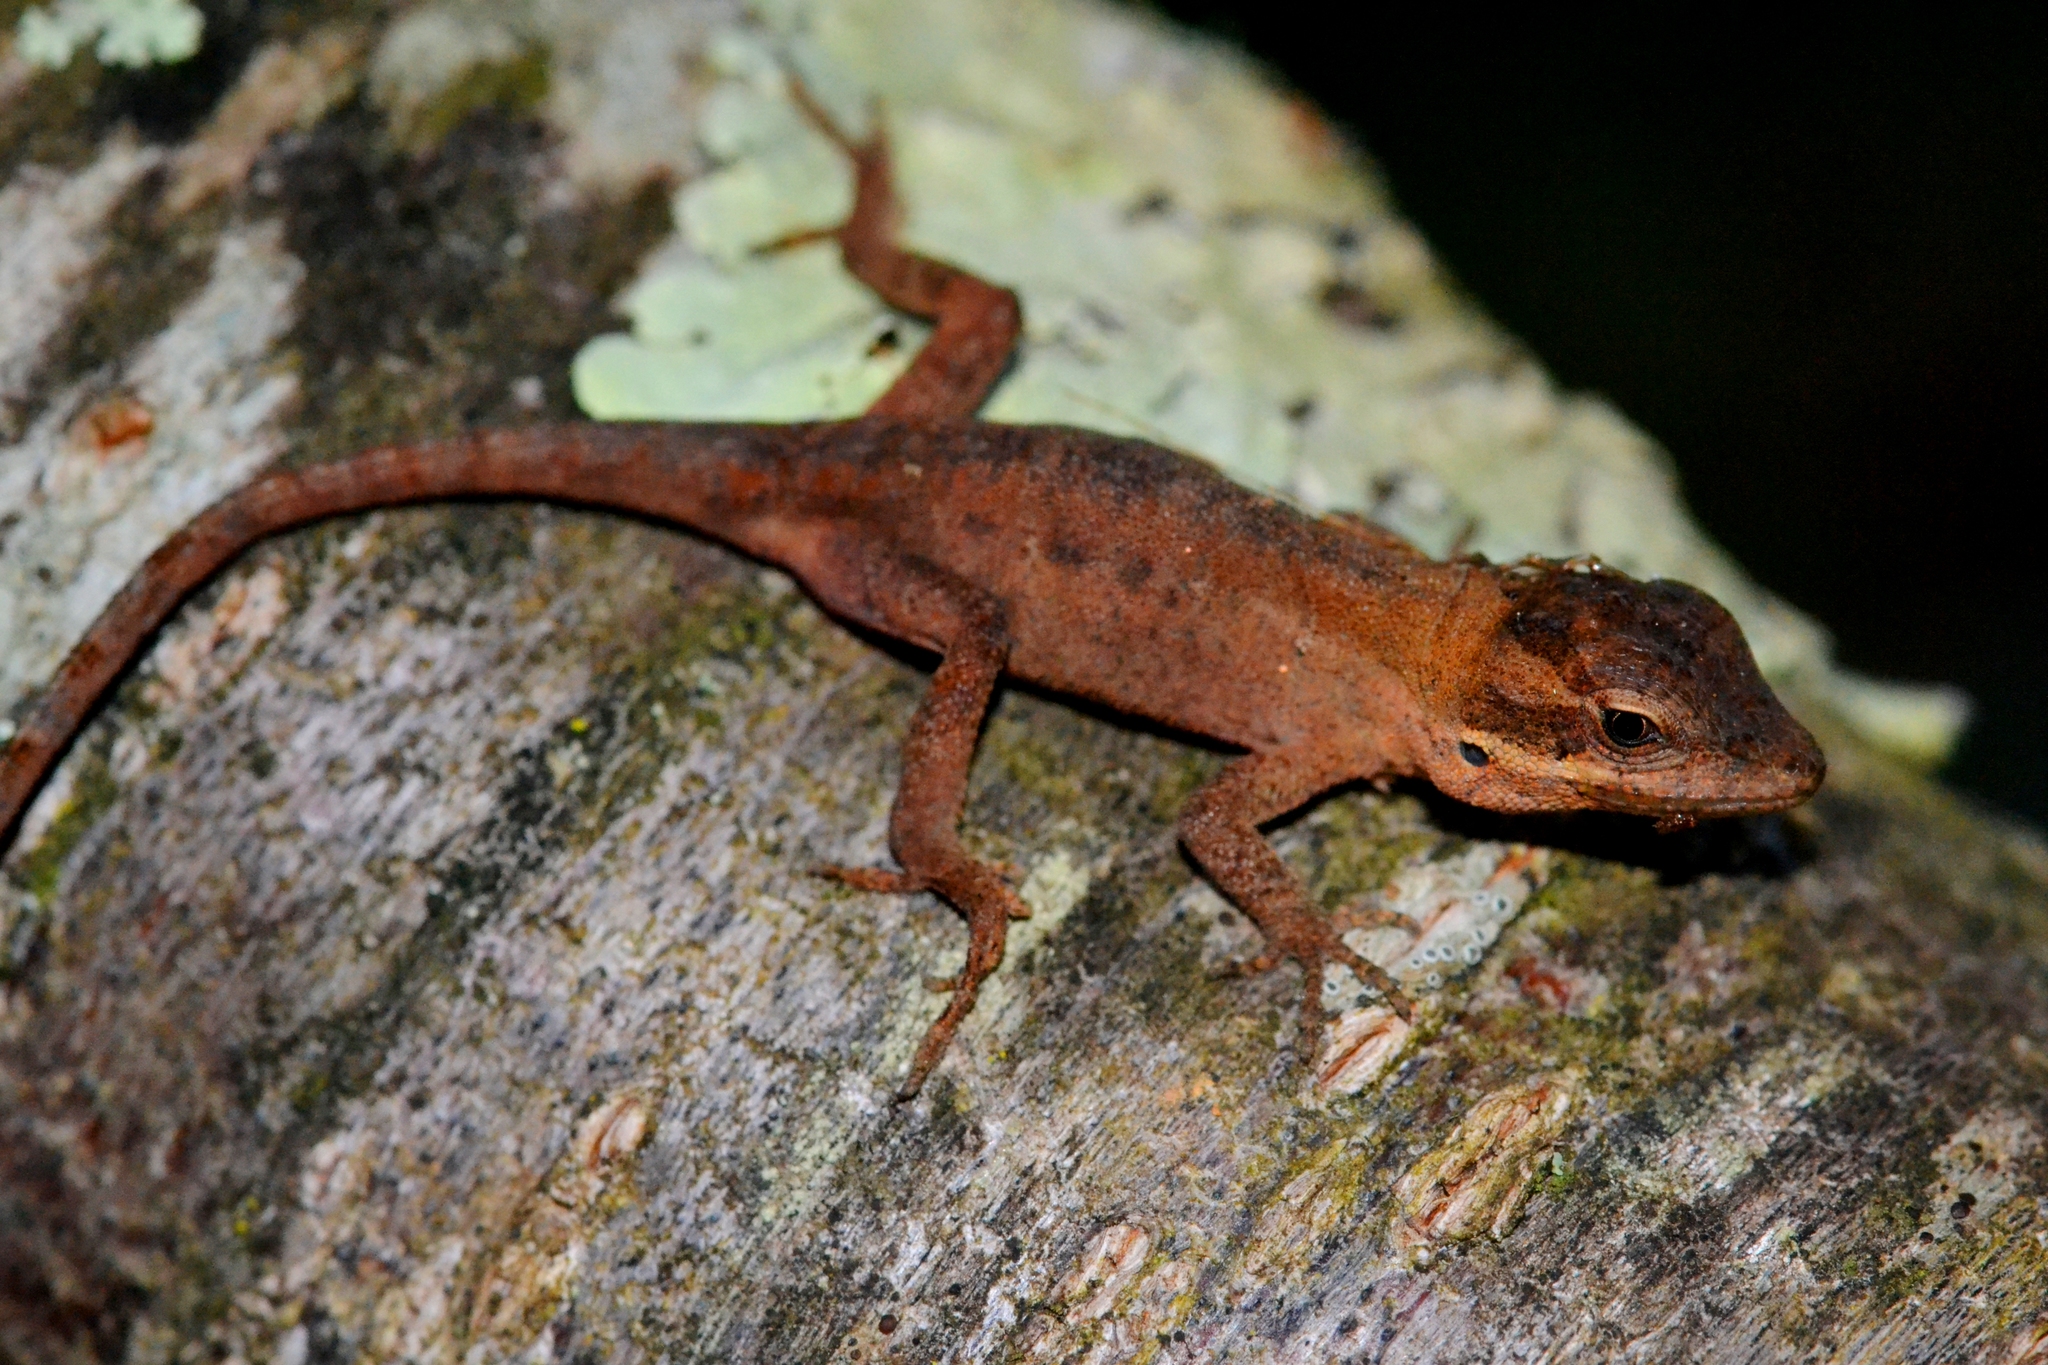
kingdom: Animalia
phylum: Chordata
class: Squamata
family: Dactyloidae
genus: Anolis
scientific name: Anolis anisolepis
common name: Chiapas ornate anole
